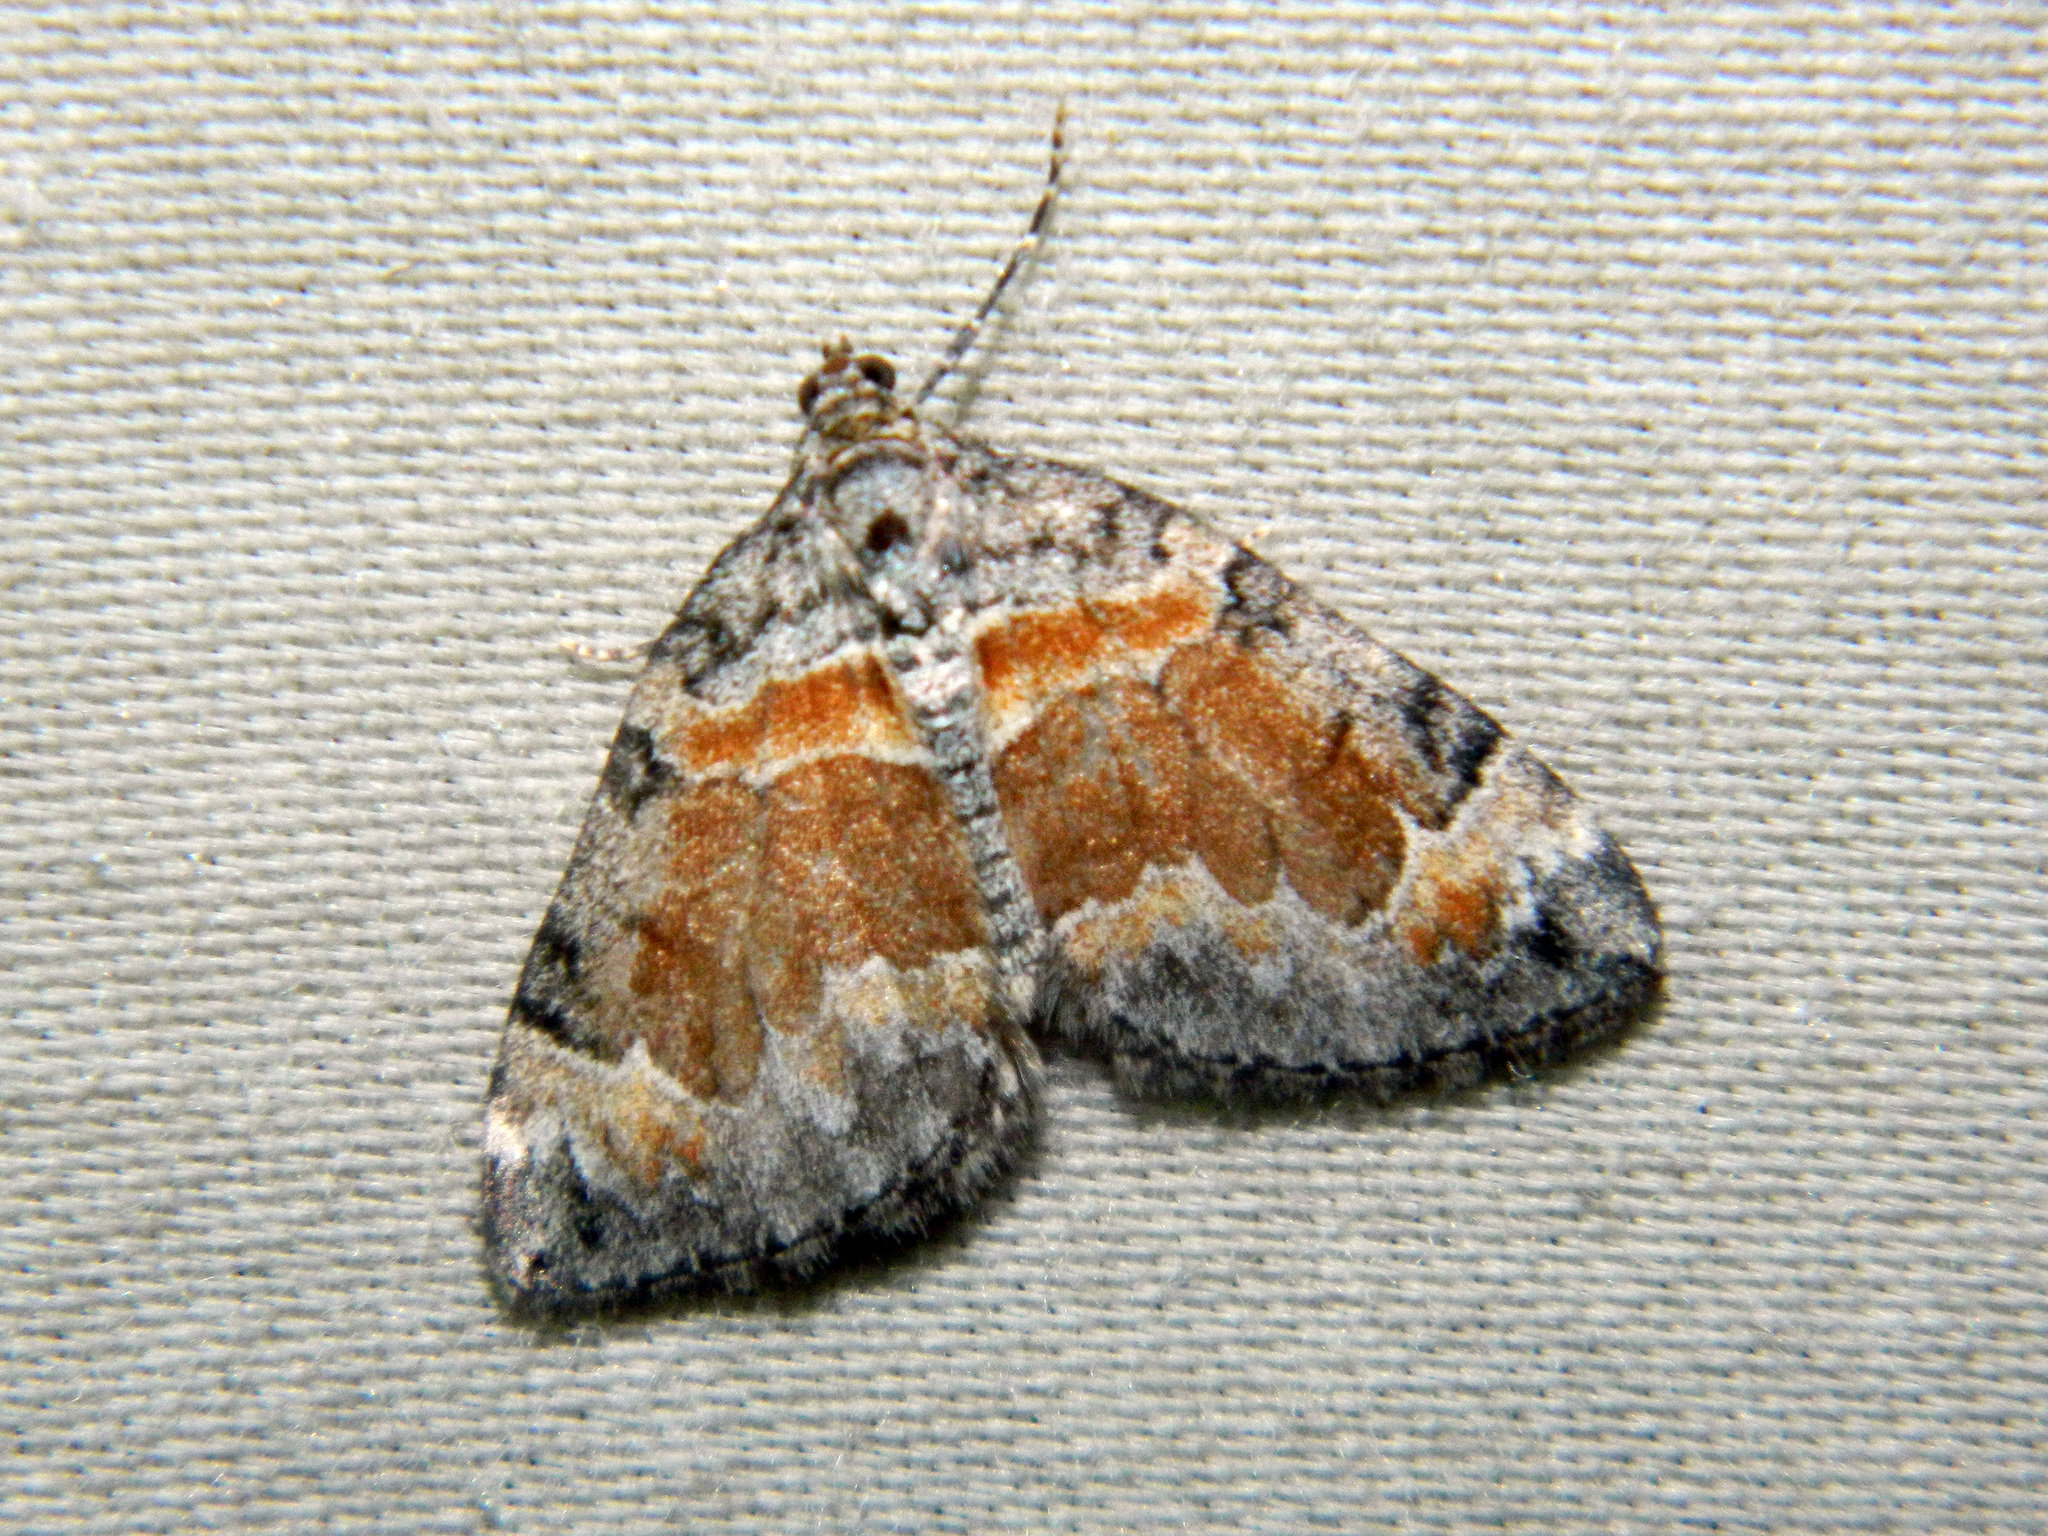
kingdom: Animalia
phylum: Arthropoda
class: Insecta
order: Lepidoptera
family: Geometridae
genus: Dysstroma
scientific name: Dysstroma hersiliata
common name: Orange-barred carpet
